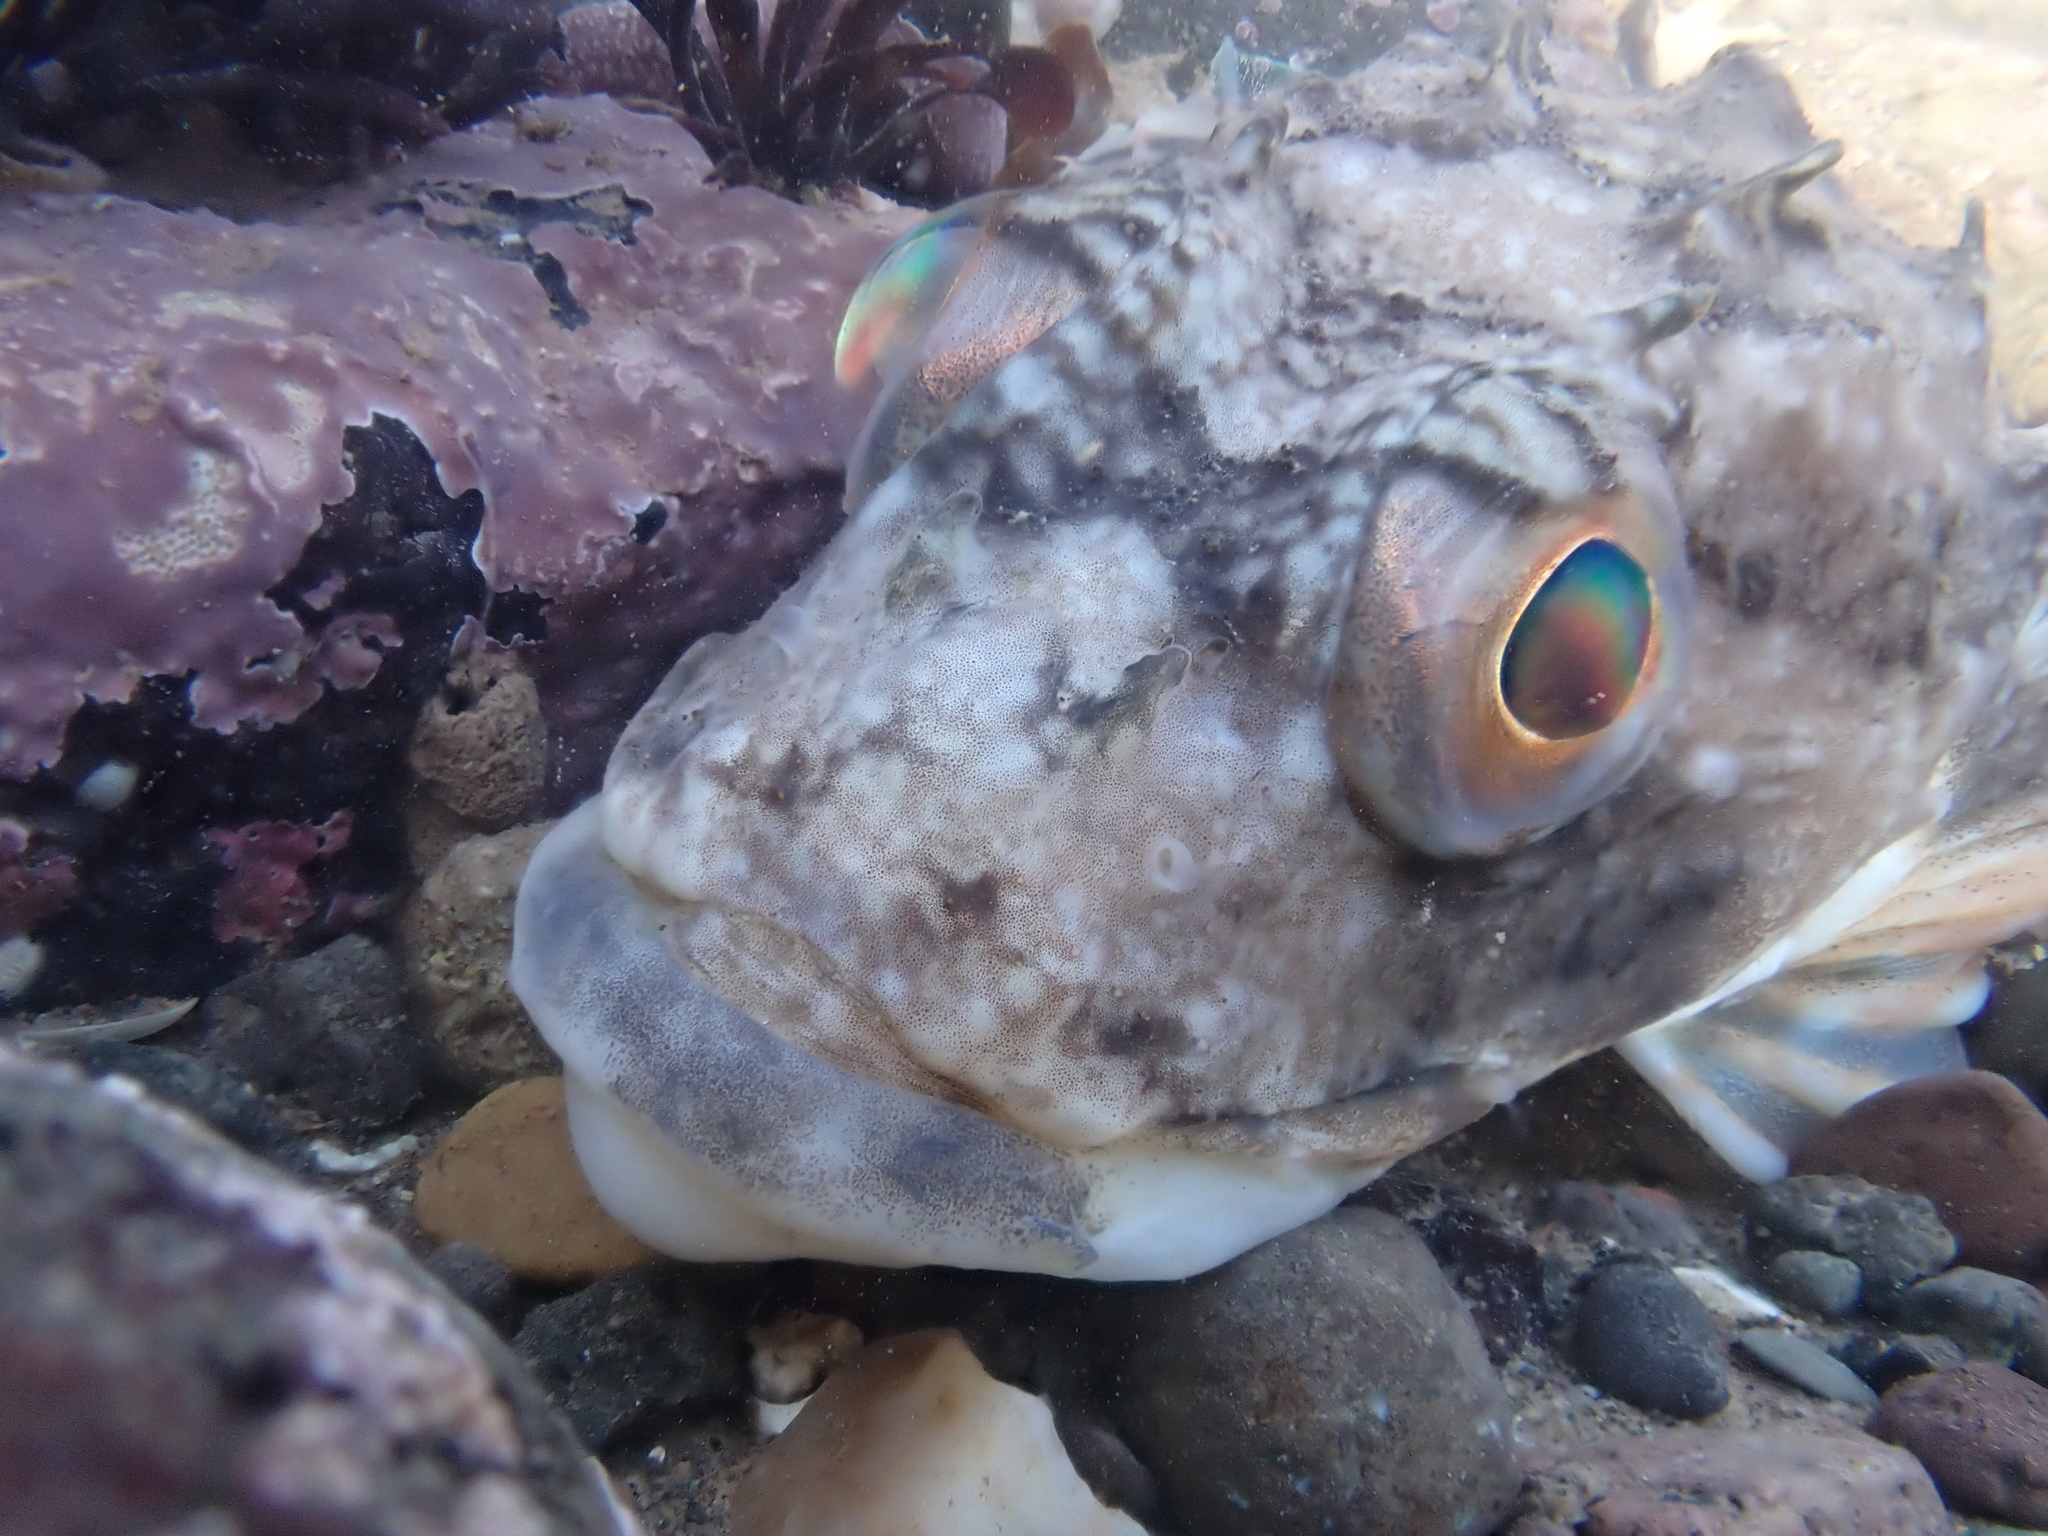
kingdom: Animalia
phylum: Chordata
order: Scorpaeniformes
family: Cottidae
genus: Myoxocephalus
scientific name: Myoxocephalus scorpius
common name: Shorthorn sculpin
